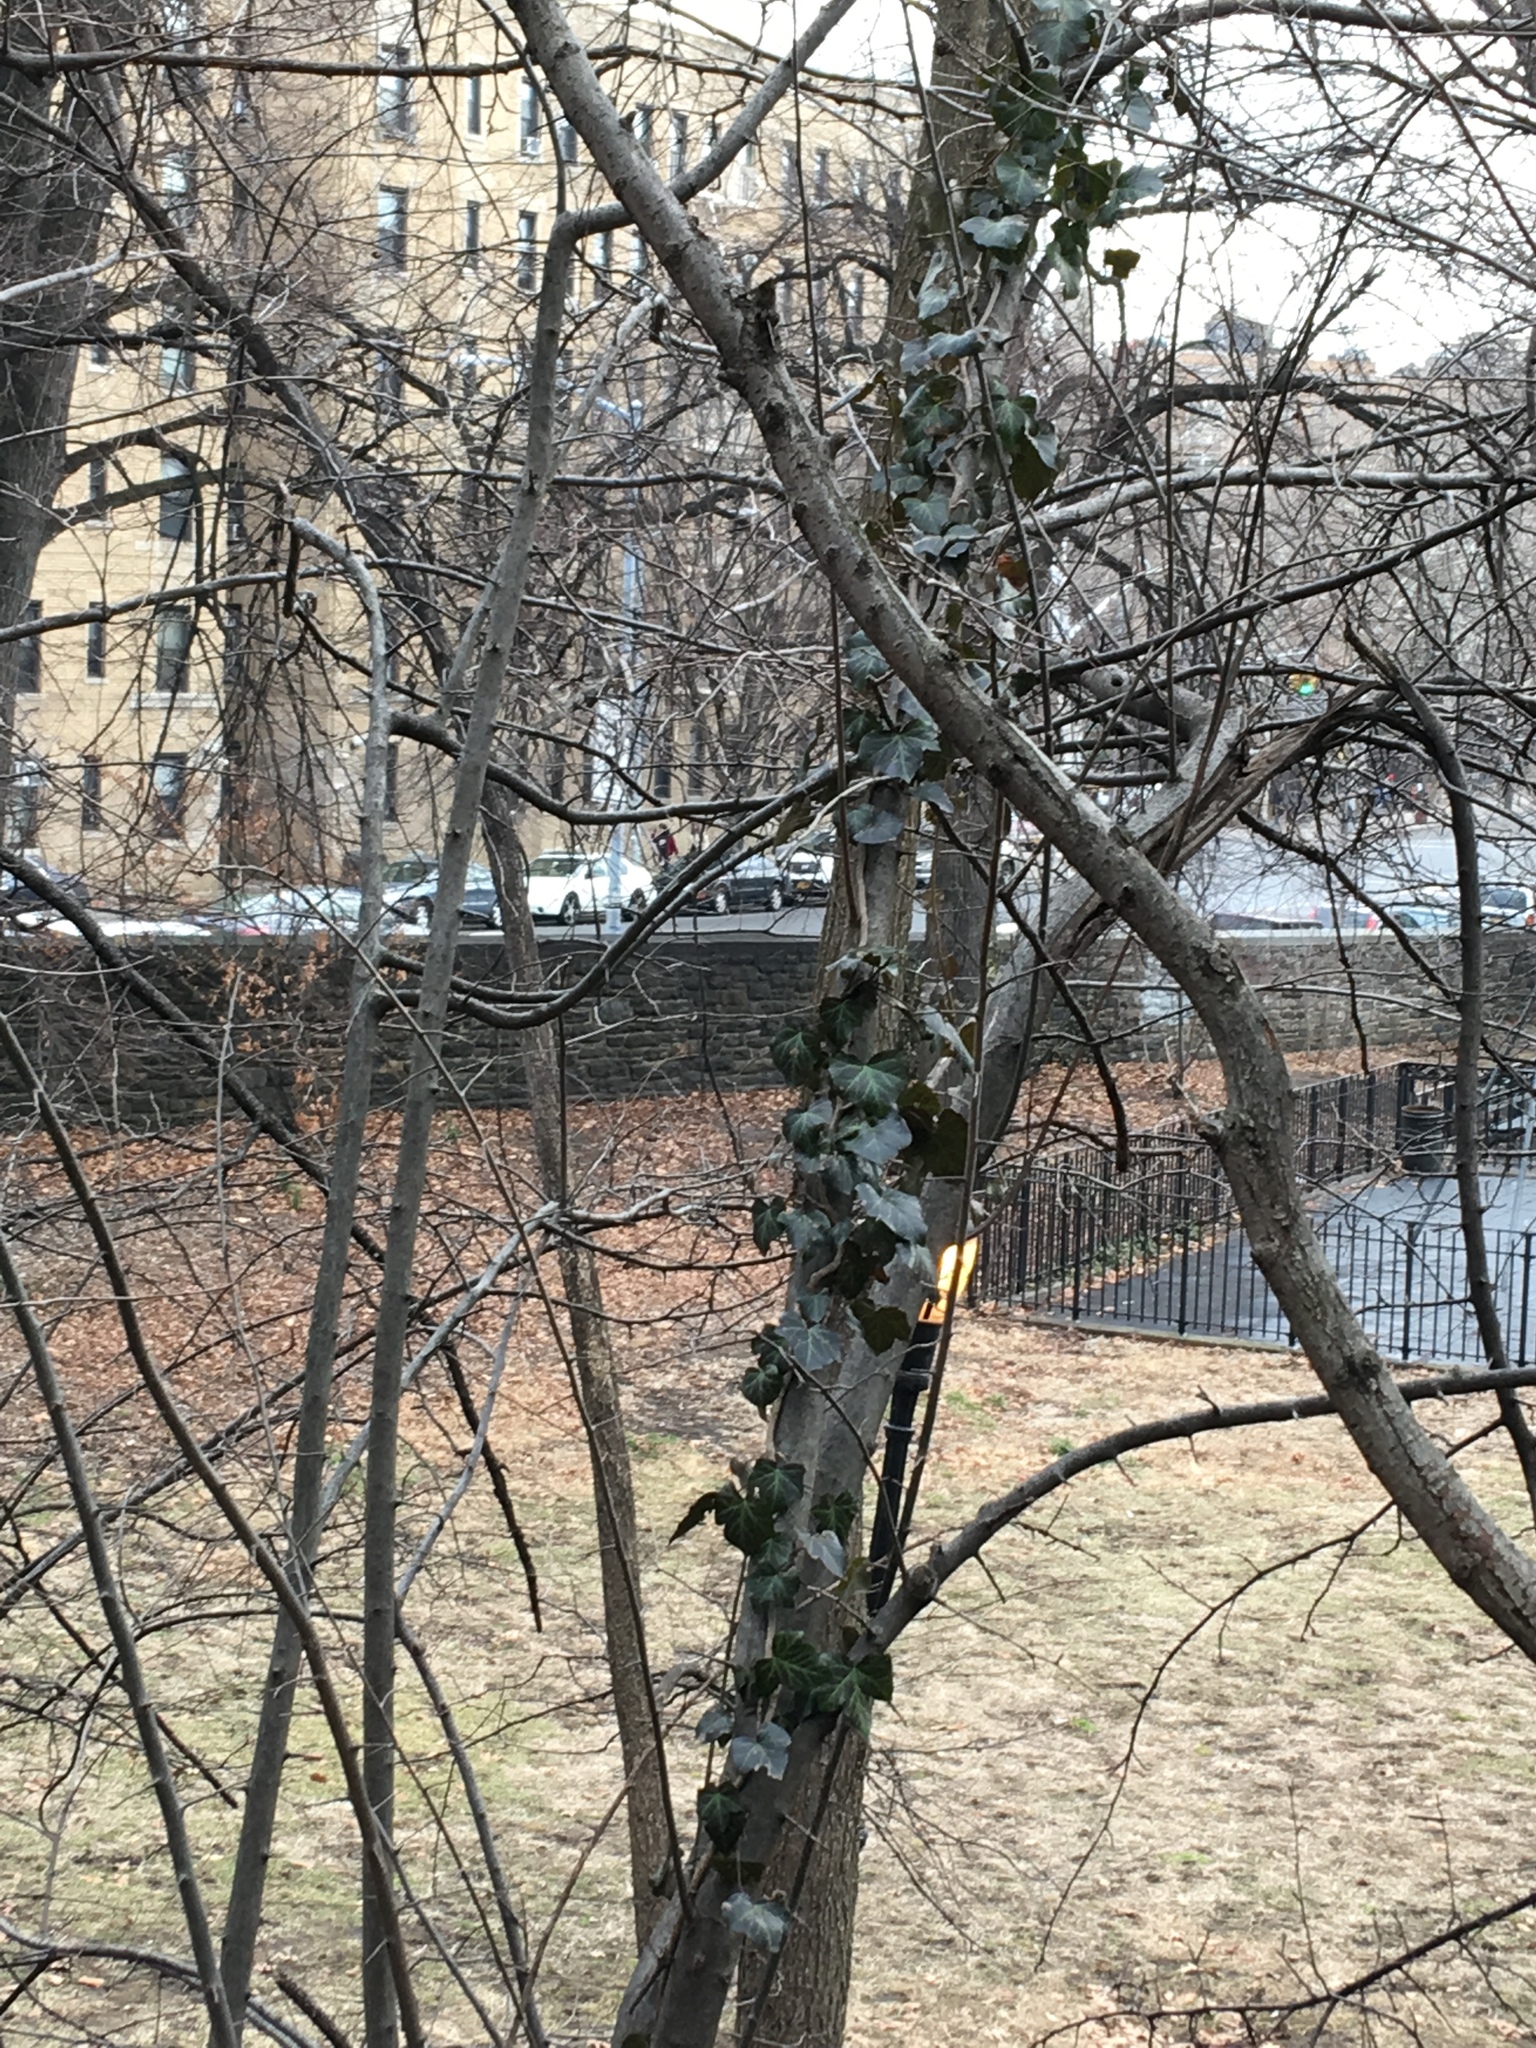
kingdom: Plantae
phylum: Tracheophyta
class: Magnoliopsida
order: Apiales
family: Araliaceae
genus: Hedera
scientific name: Hedera helix
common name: Ivy
